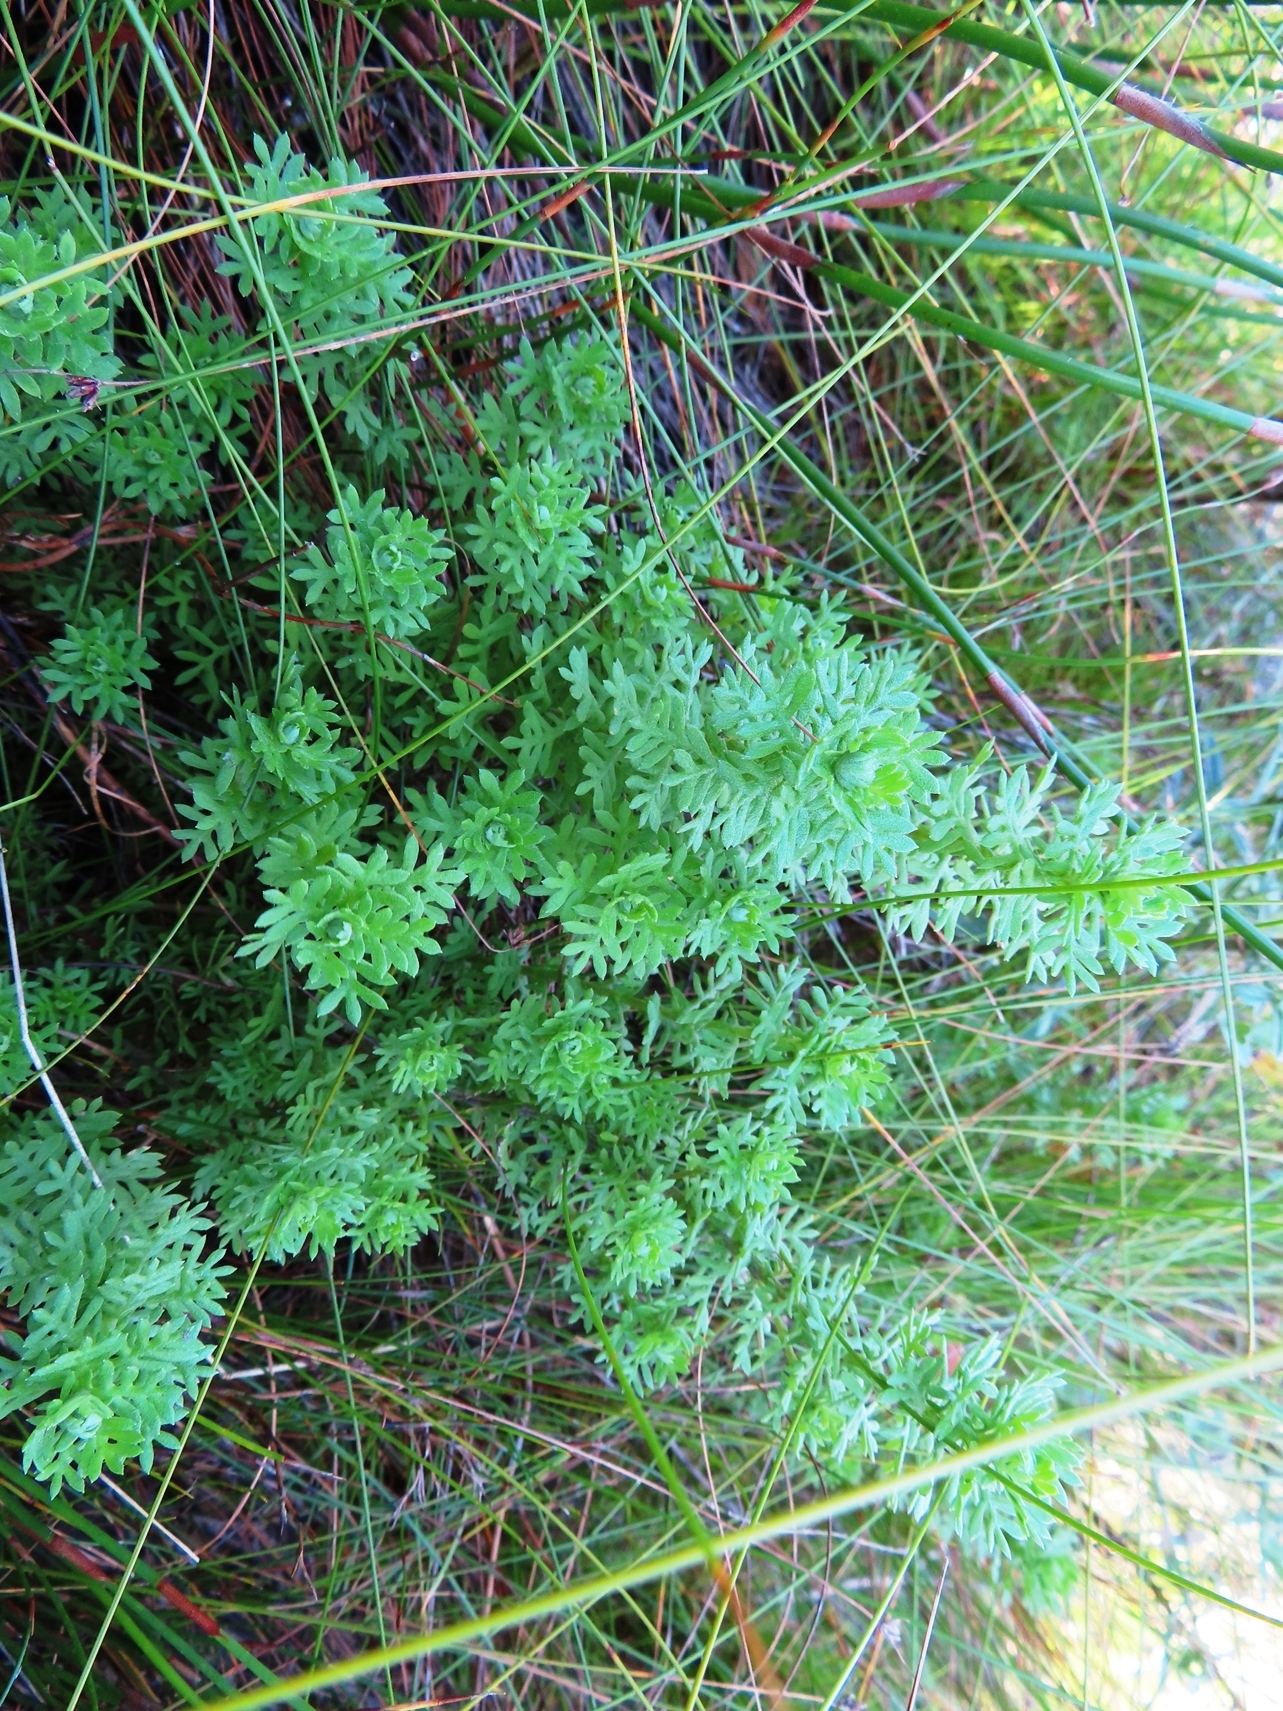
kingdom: Plantae
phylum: Tracheophyta
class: Magnoliopsida
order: Asterales
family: Asteraceae
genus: Hippia
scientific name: Hippia frutescens
